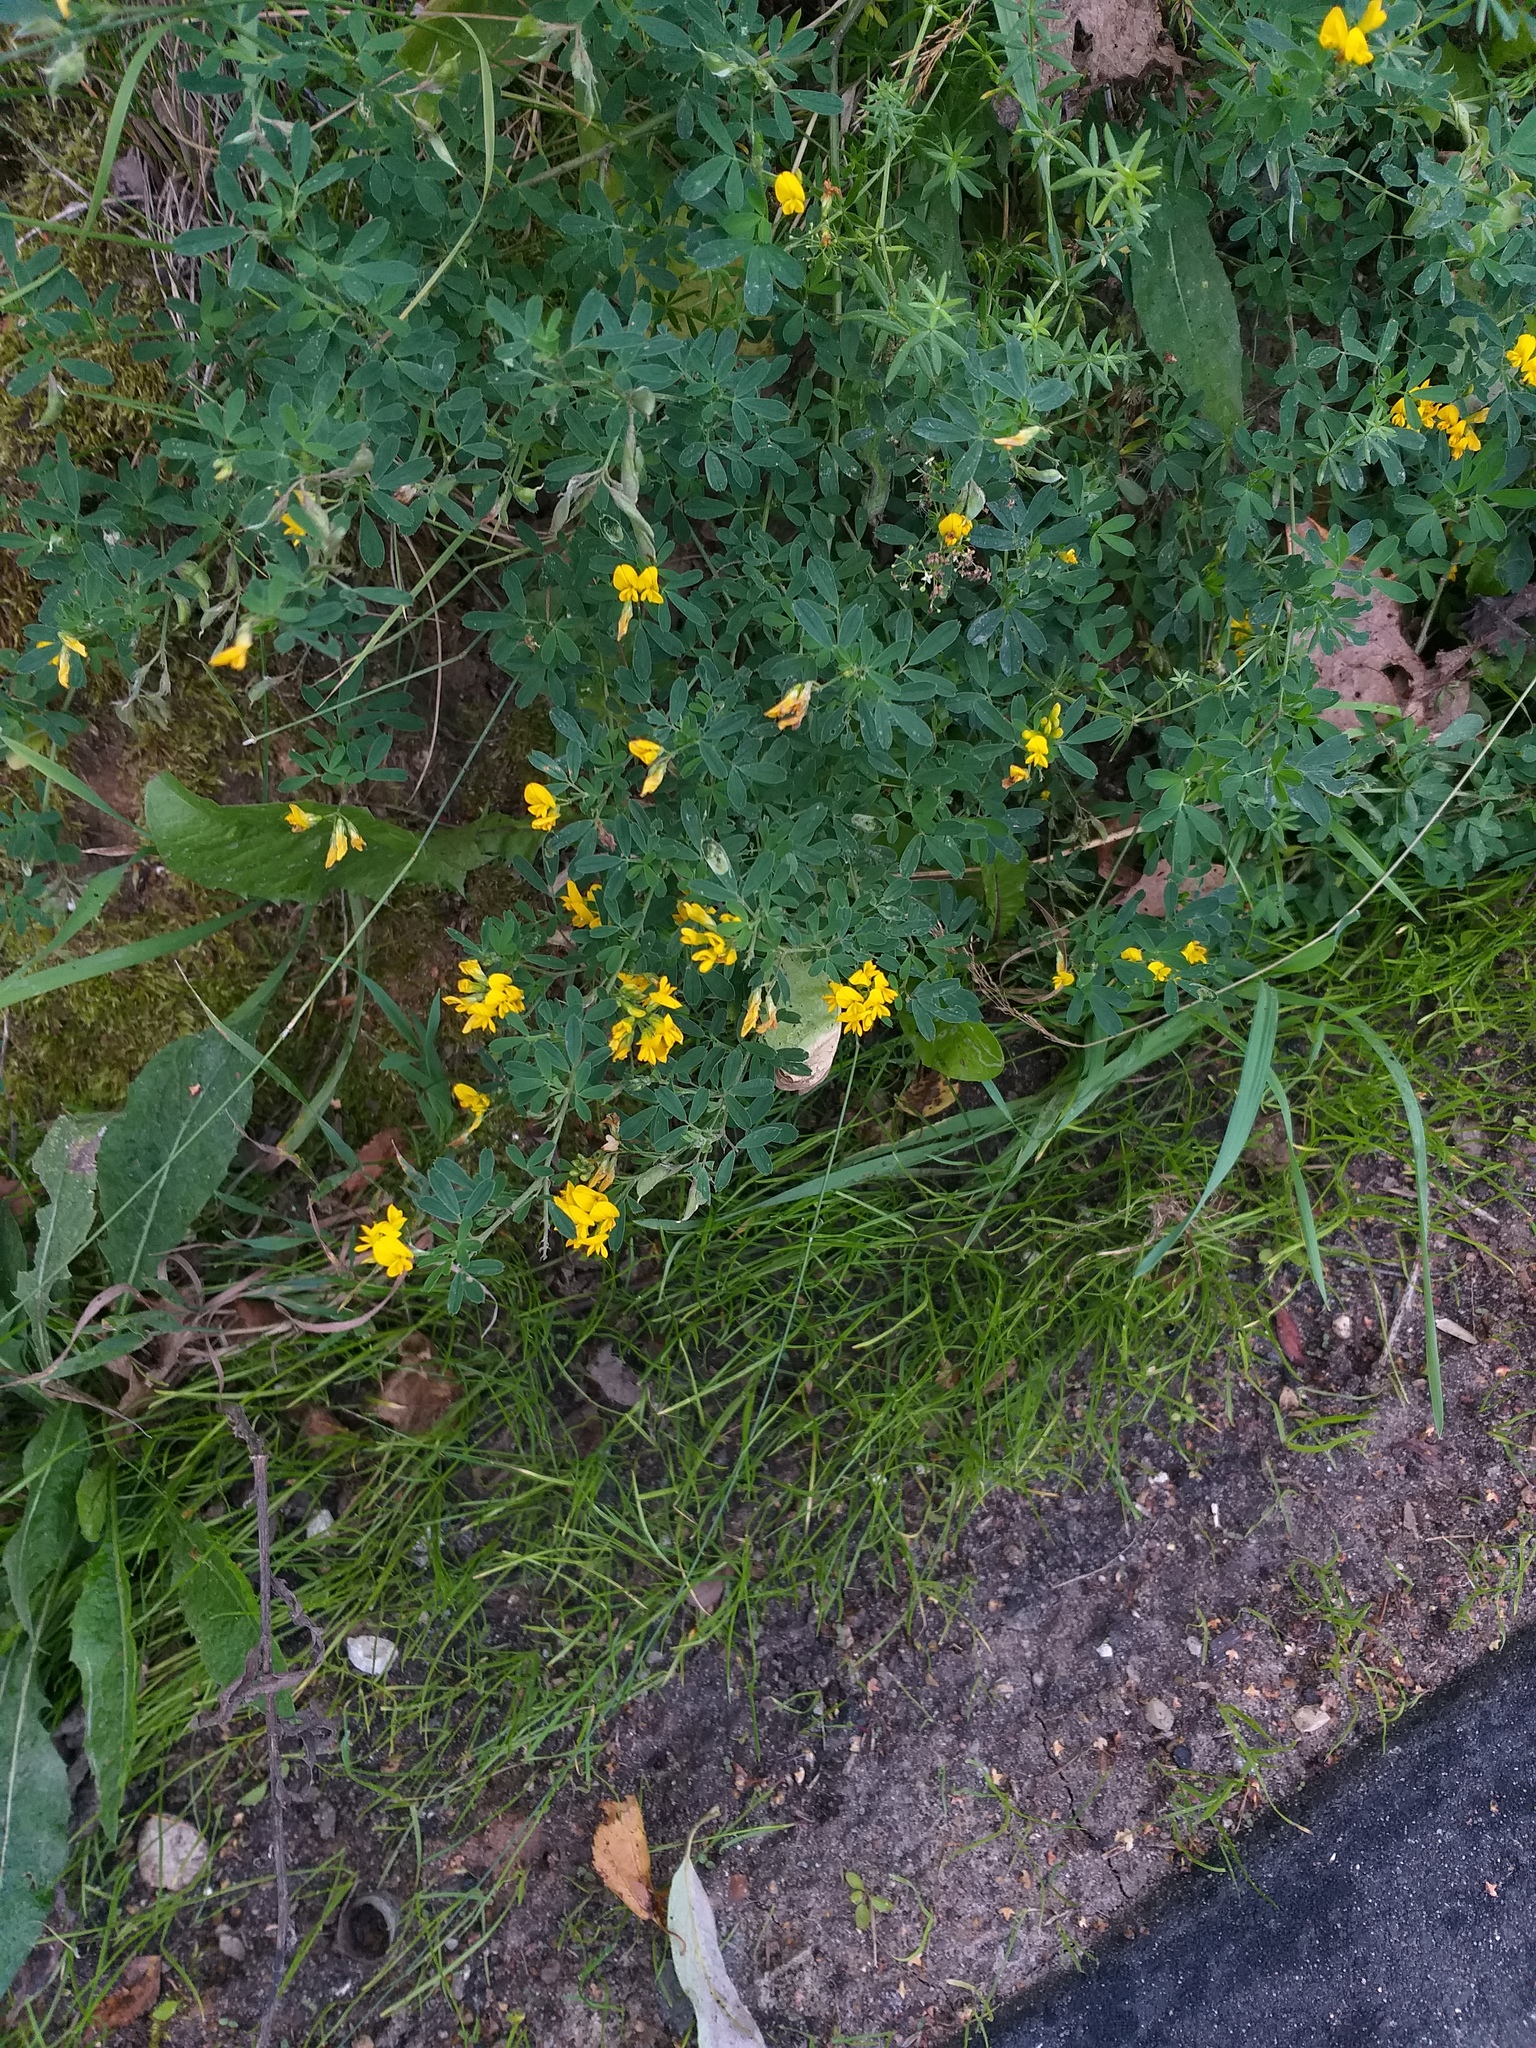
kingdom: Plantae
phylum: Tracheophyta
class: Magnoliopsida
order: Fabales
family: Fabaceae
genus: Medicago
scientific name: Medicago falcata
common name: Sickle medick
